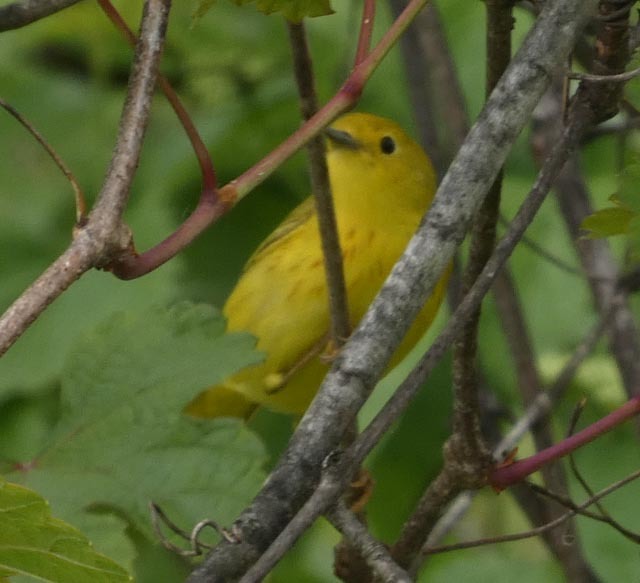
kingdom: Animalia
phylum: Chordata
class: Aves
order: Passeriformes
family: Parulidae
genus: Setophaga
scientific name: Setophaga petechia
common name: Yellow warbler
